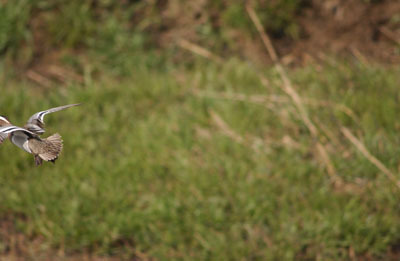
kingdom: Animalia
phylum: Chordata
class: Aves
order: Anseriformes
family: Anatidae
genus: Spatula
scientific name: Spatula querquedula
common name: Garganey
